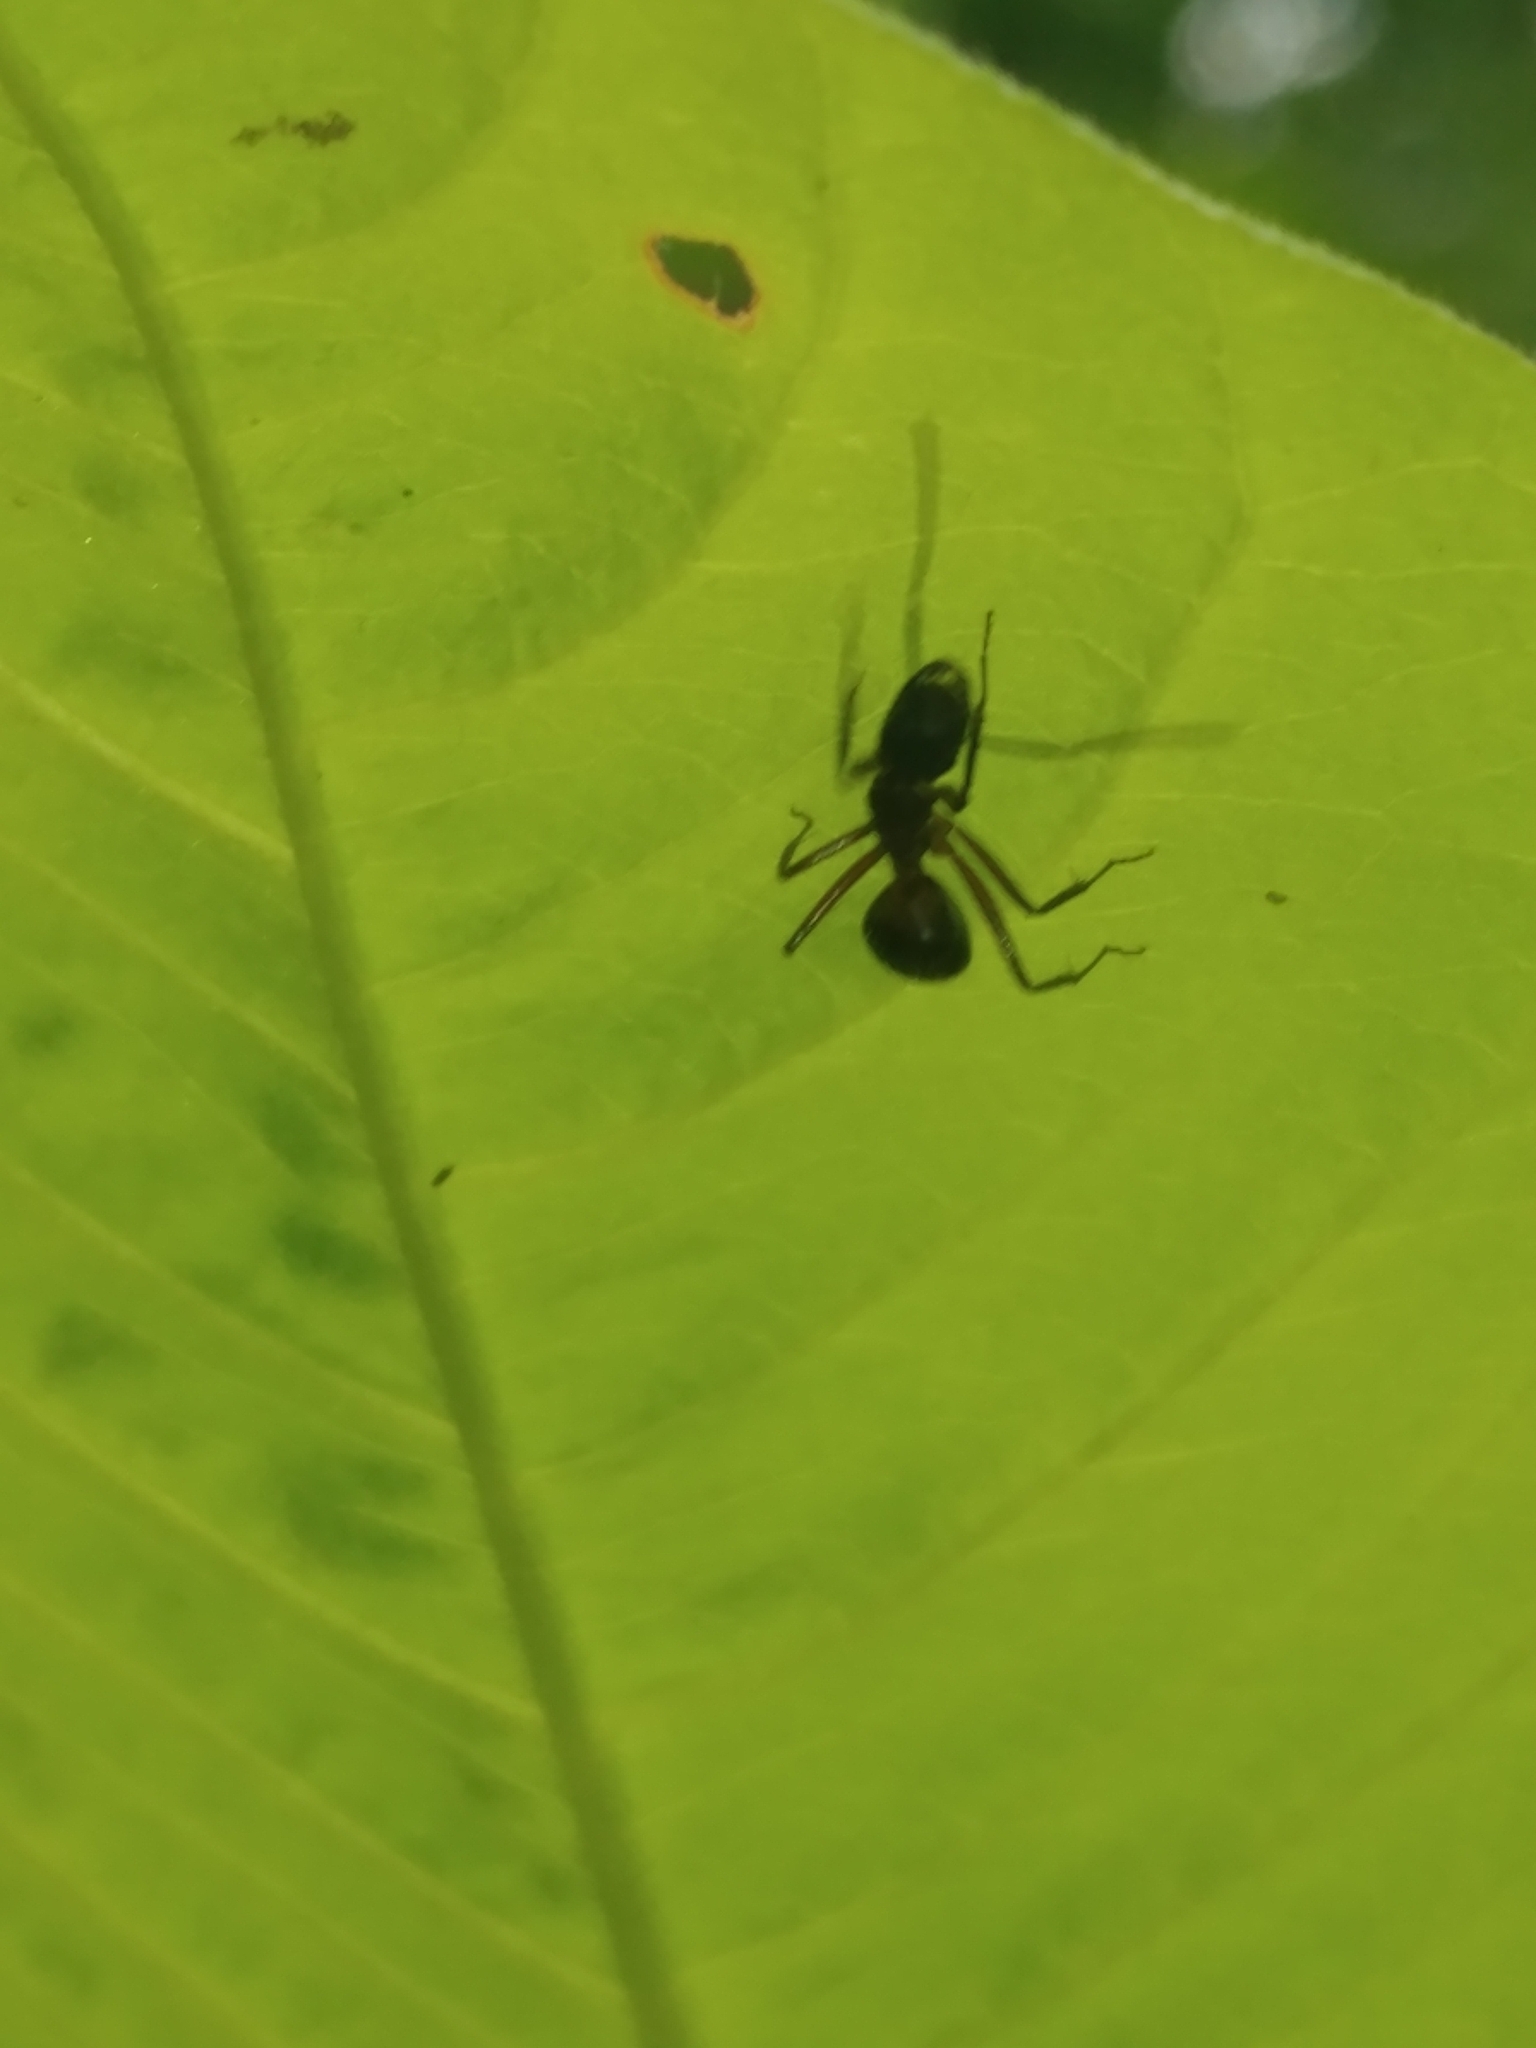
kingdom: Animalia
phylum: Arthropoda
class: Insecta
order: Hymenoptera
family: Formicidae
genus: Camponotus
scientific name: Camponotus chromaiodes
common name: Red carpenter ant
